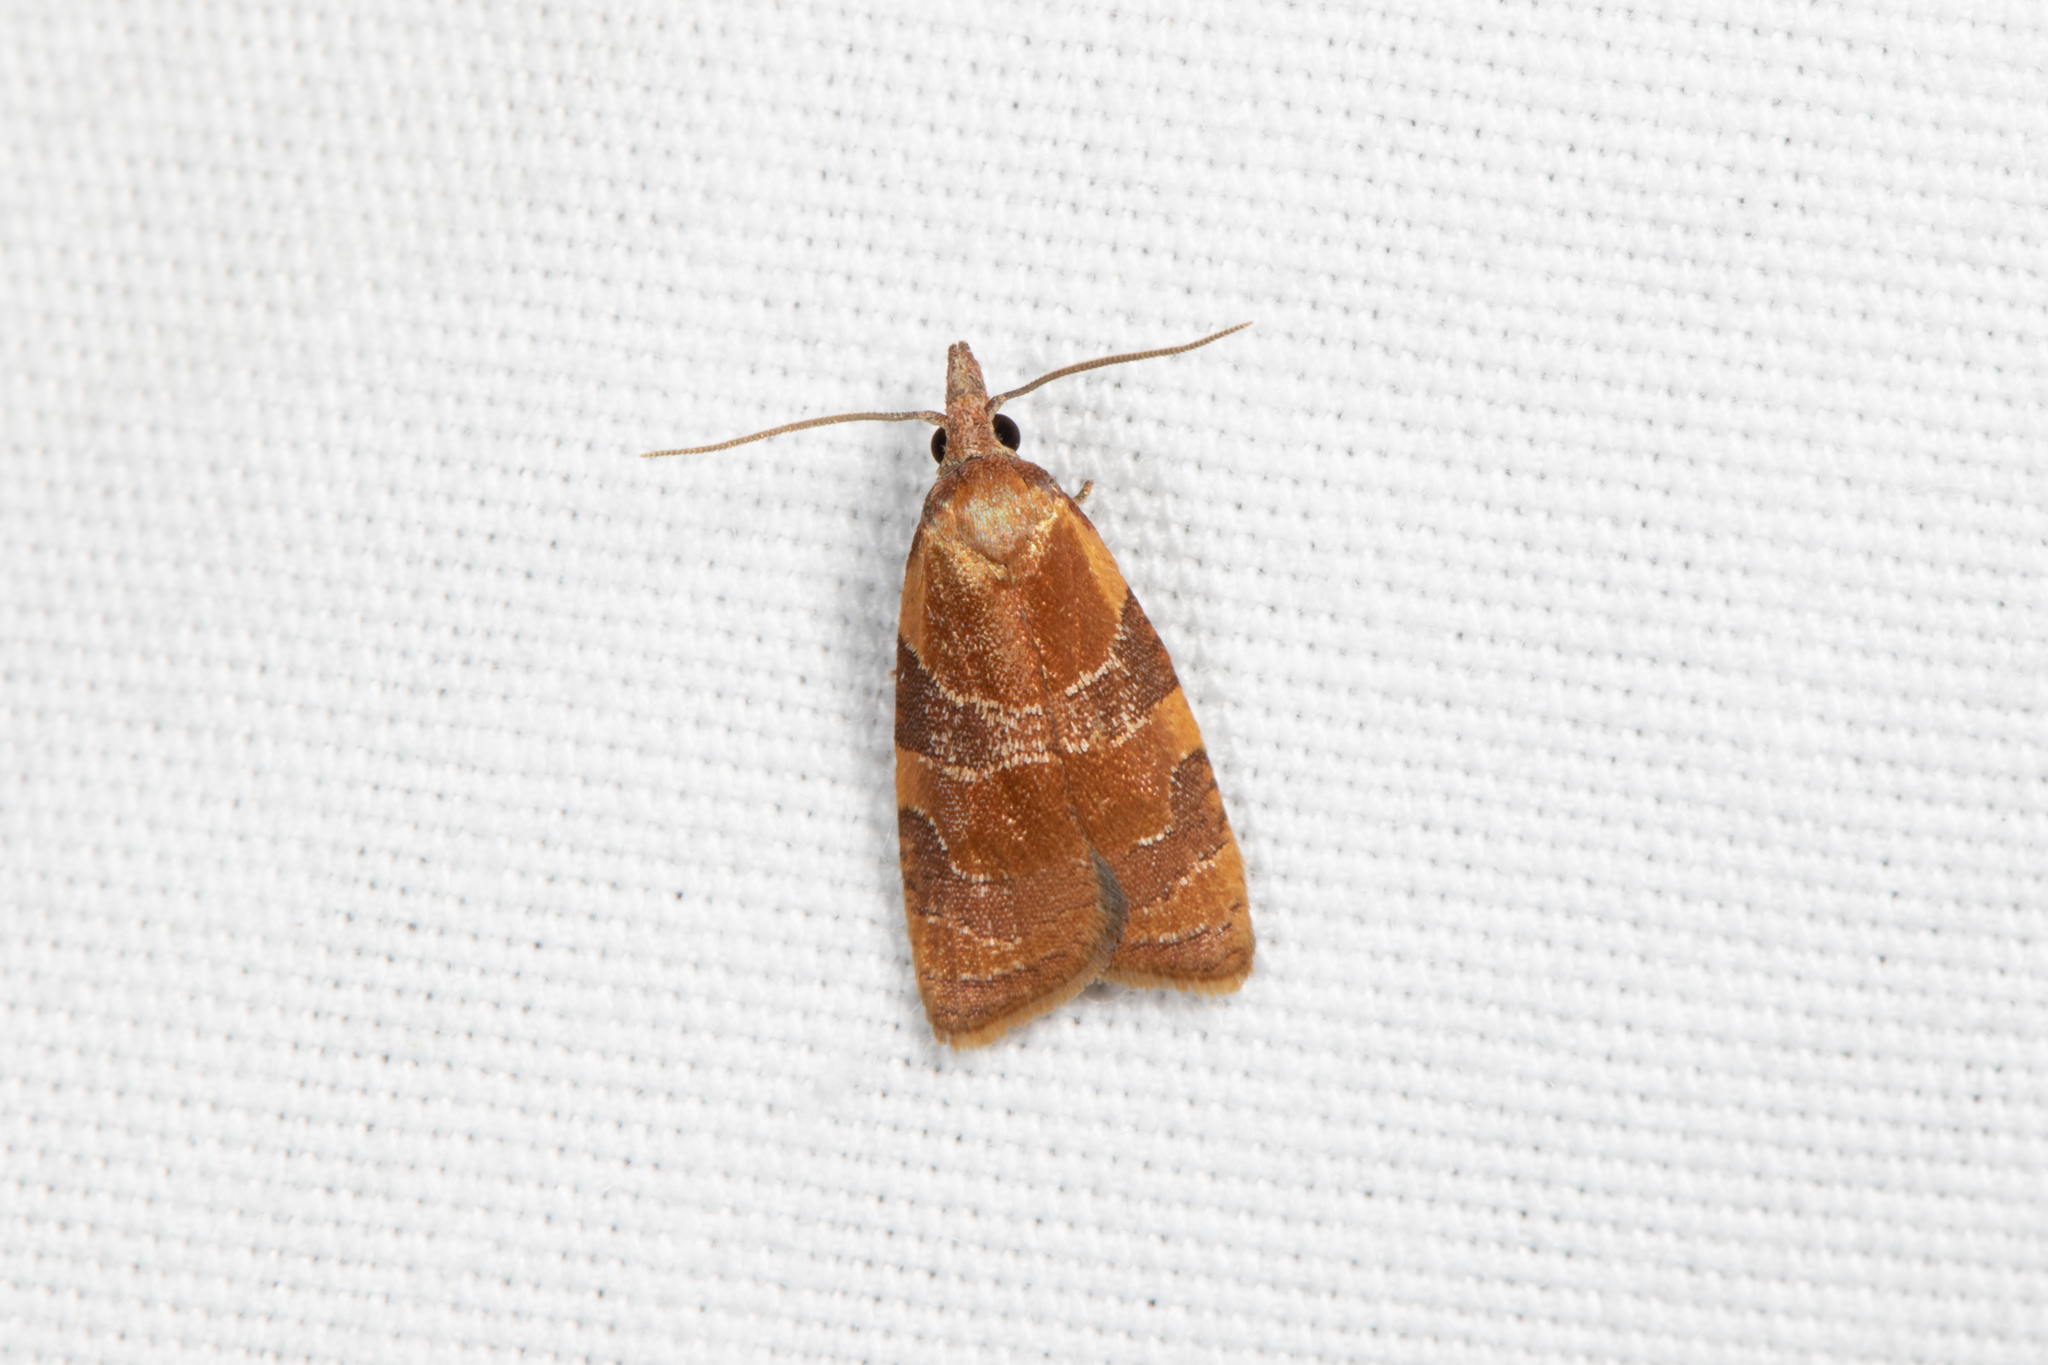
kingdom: Animalia
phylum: Arthropoda
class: Insecta
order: Lepidoptera
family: Tortricidae
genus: Cenopis
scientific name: Cenopis diluticostana
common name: Spring dead-leaf roller moth
